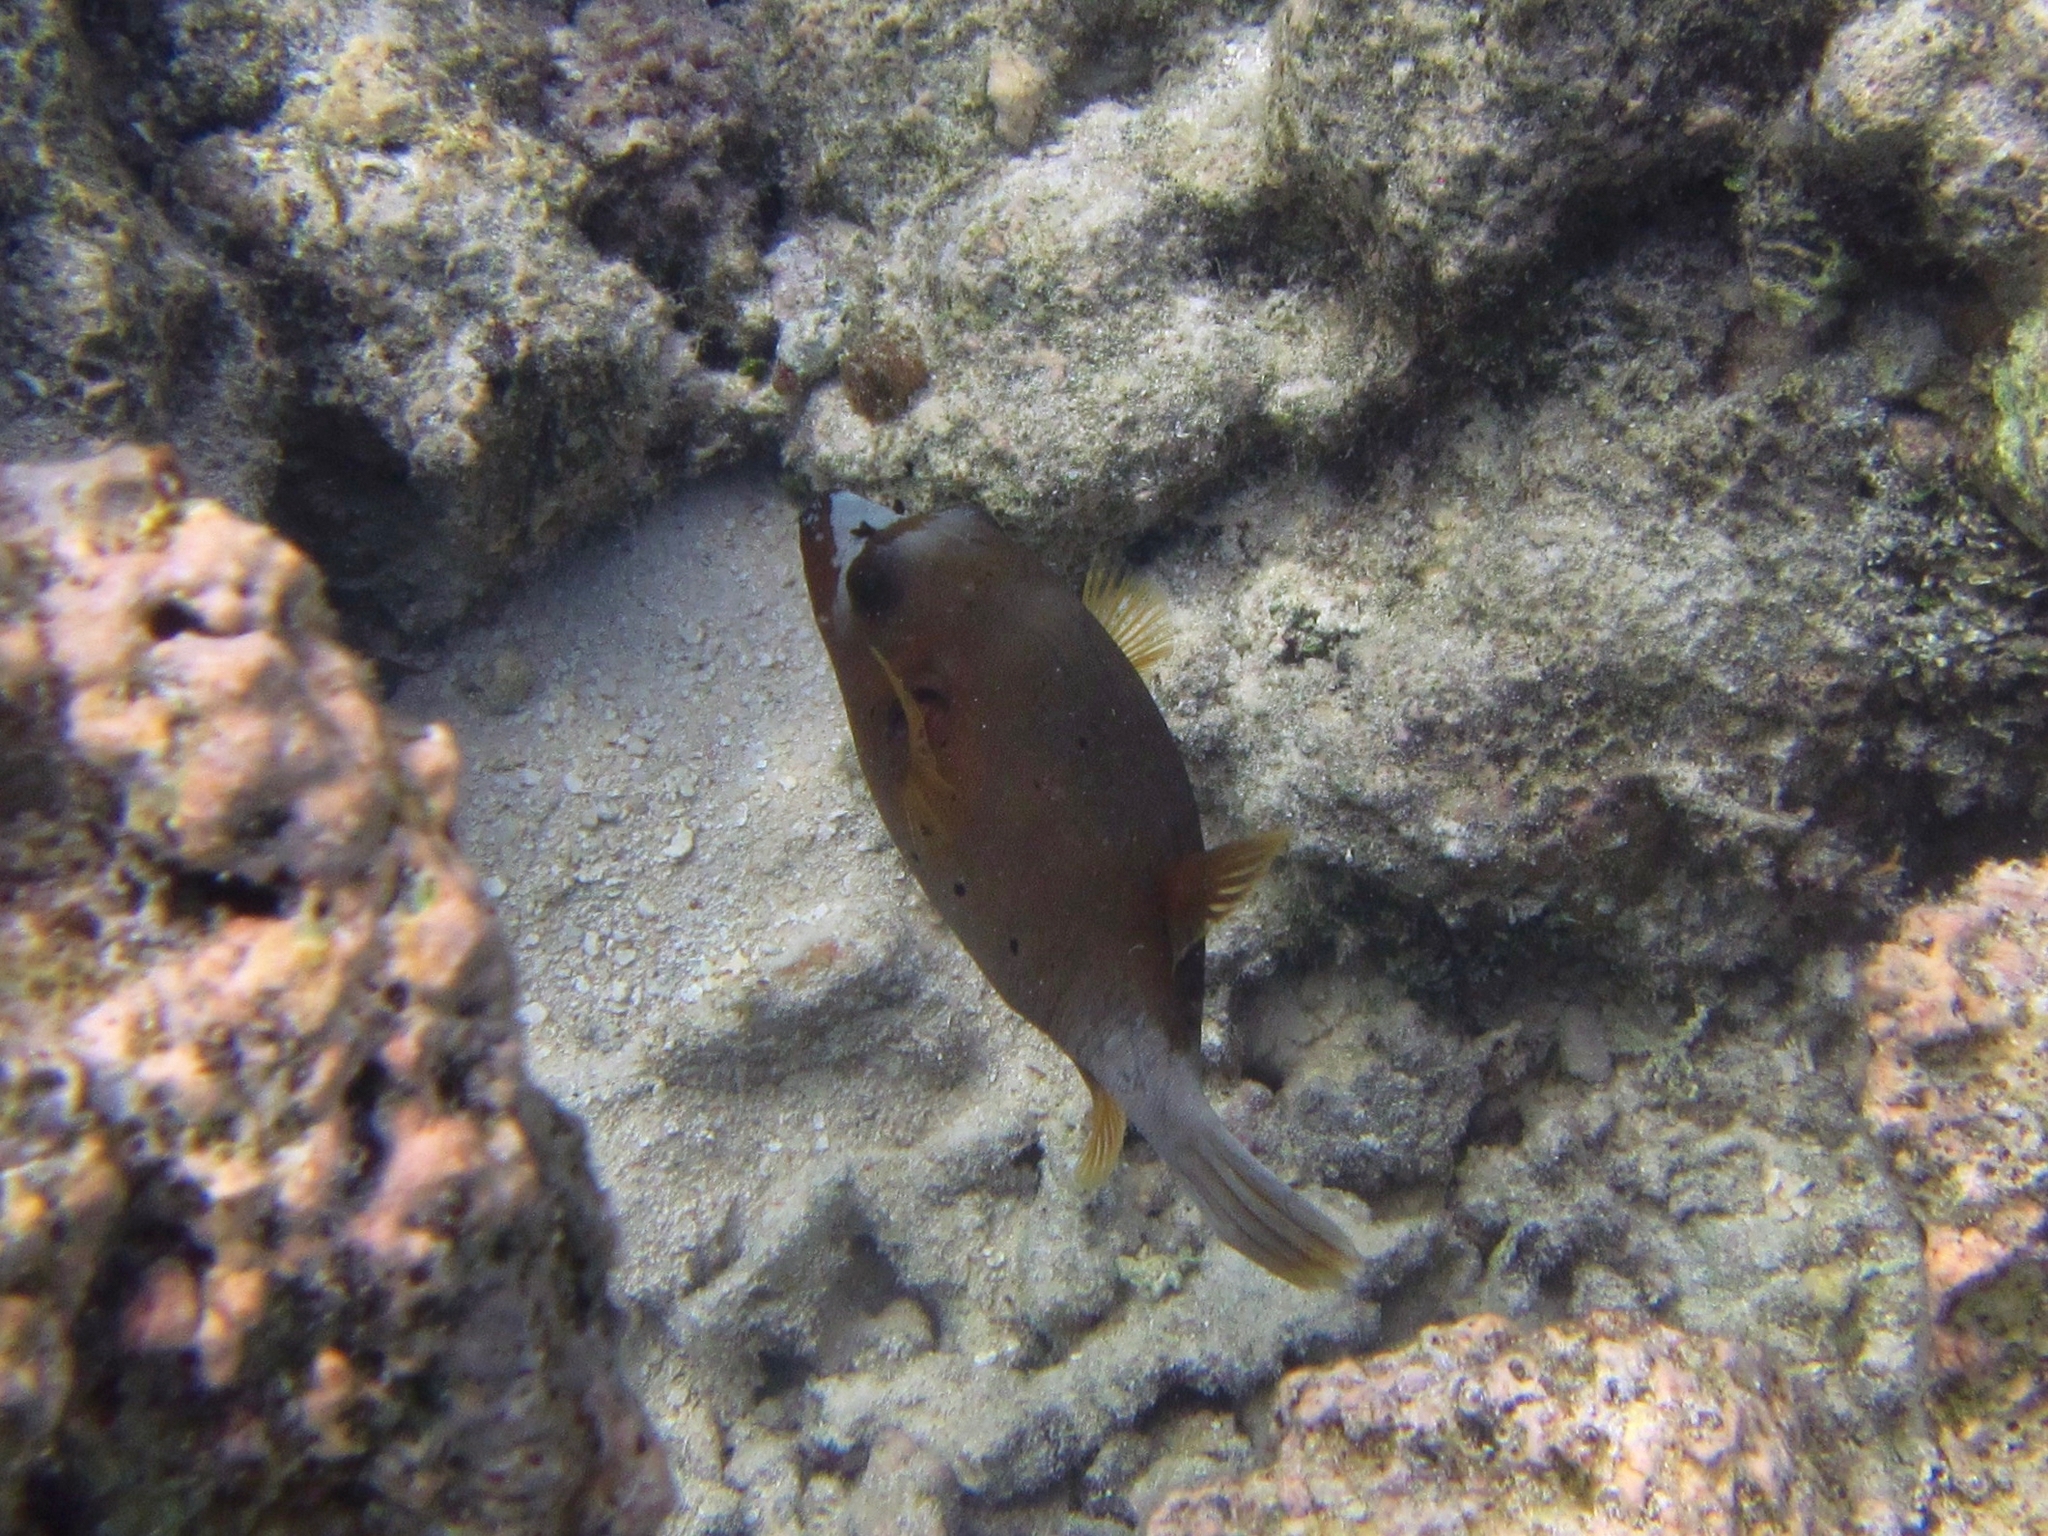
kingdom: Animalia
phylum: Chordata
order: Tetraodontiformes
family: Tetraodontidae
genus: Arothron
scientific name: Arothron nigropunctatus
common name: Black spotted blow fish
